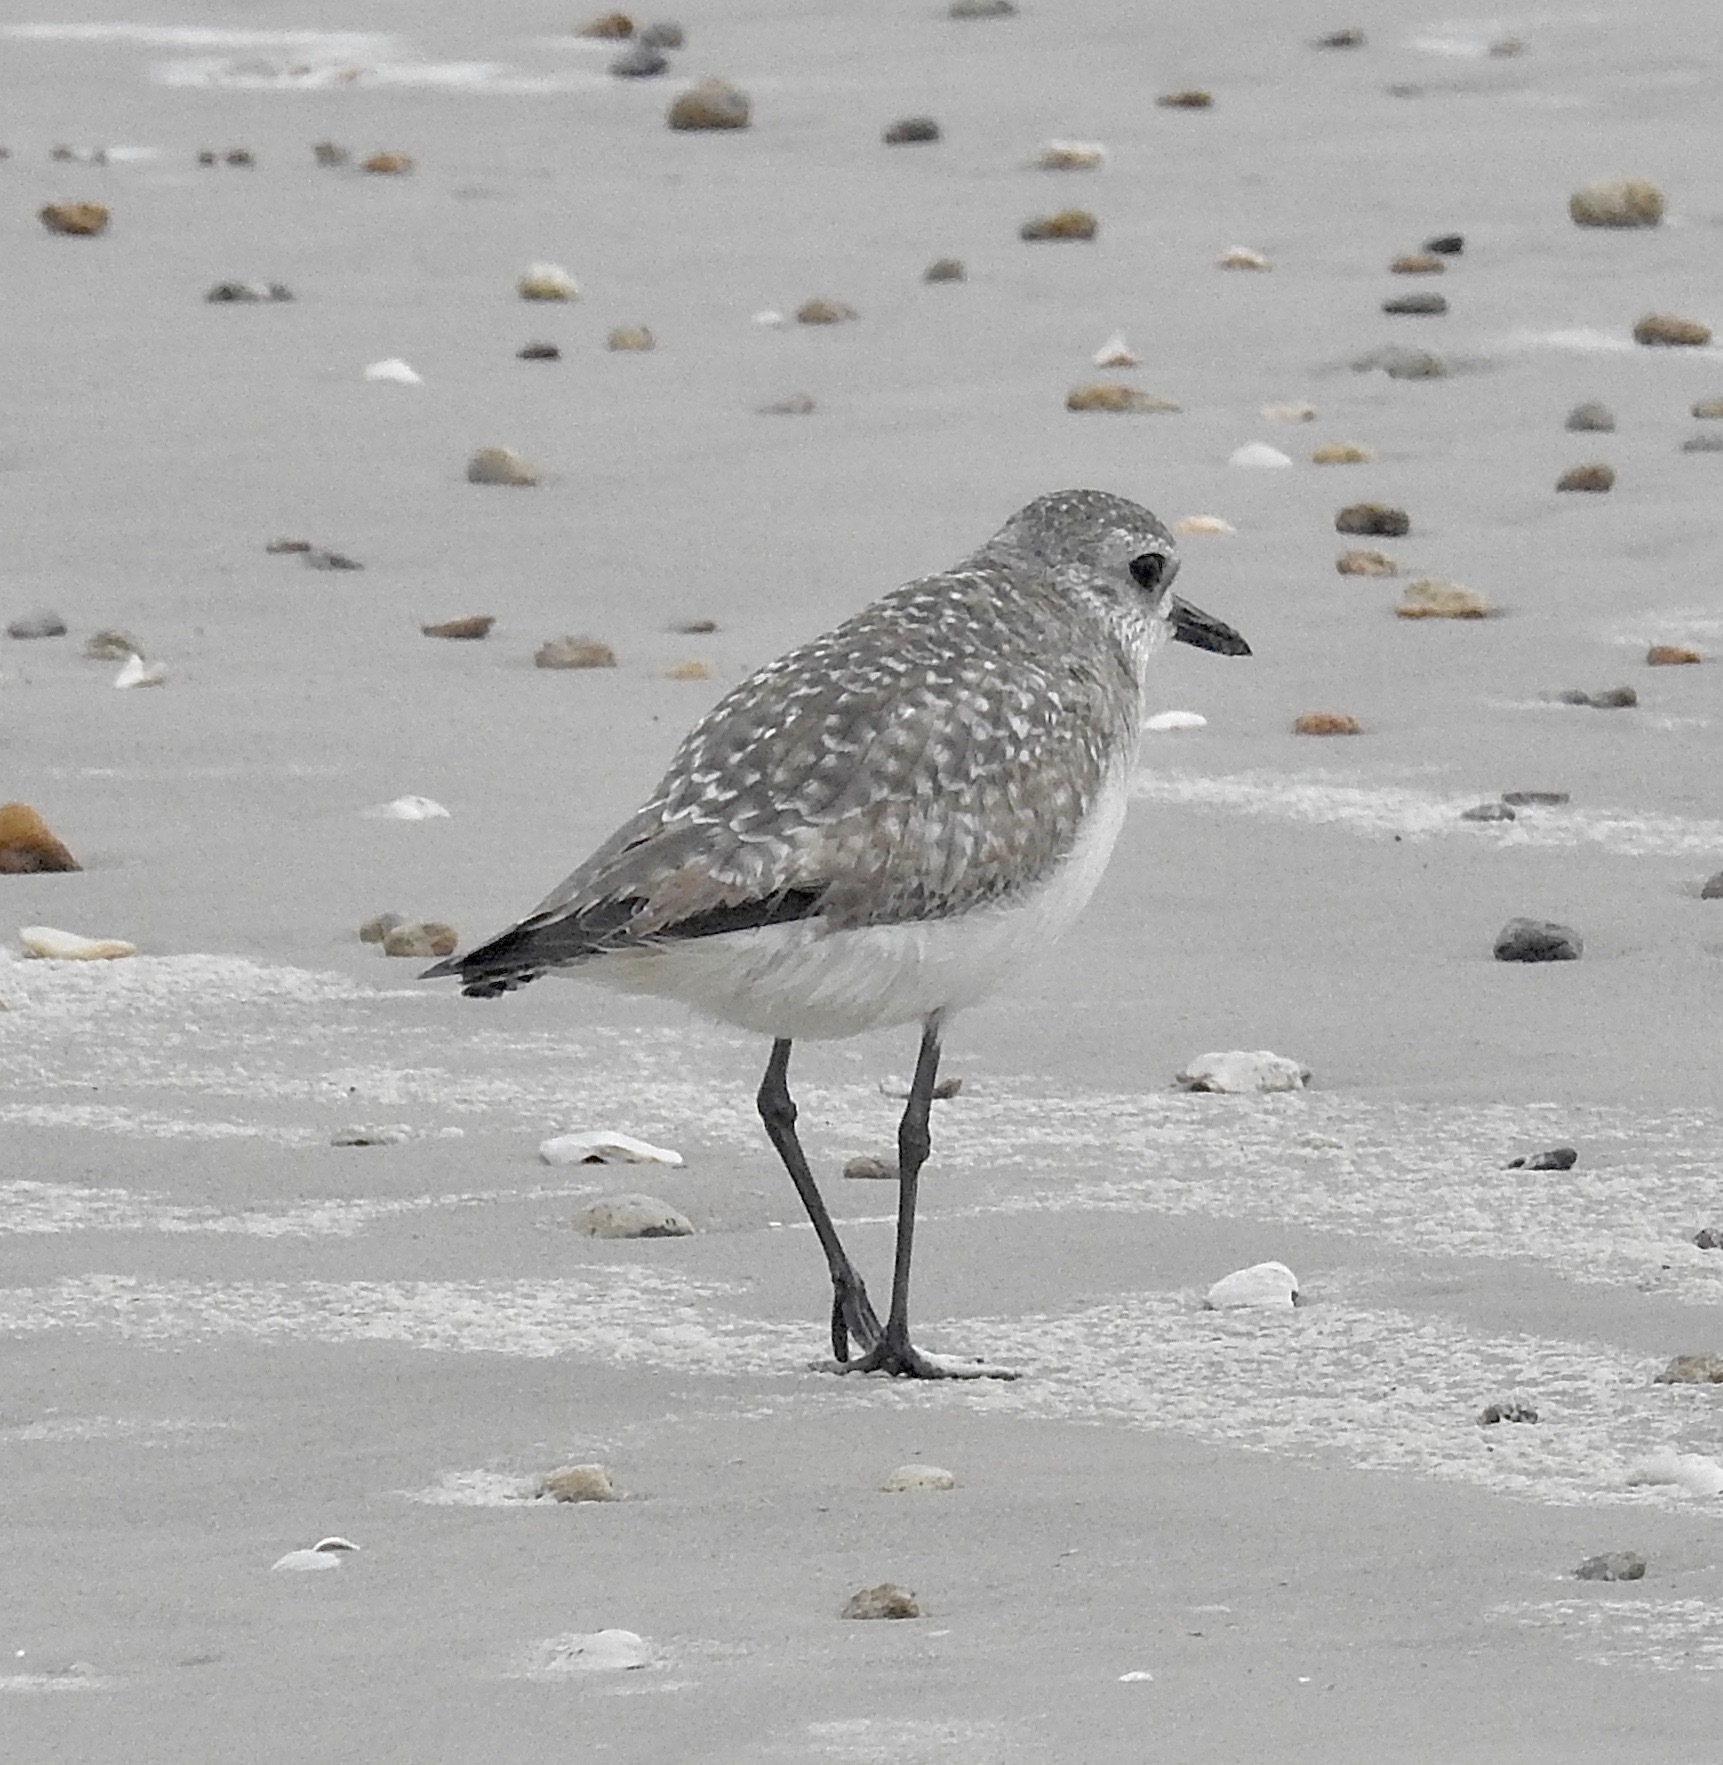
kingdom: Animalia
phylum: Chordata
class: Aves
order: Charadriiformes
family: Charadriidae
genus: Pluvialis
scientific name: Pluvialis squatarola
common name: Grey plover
